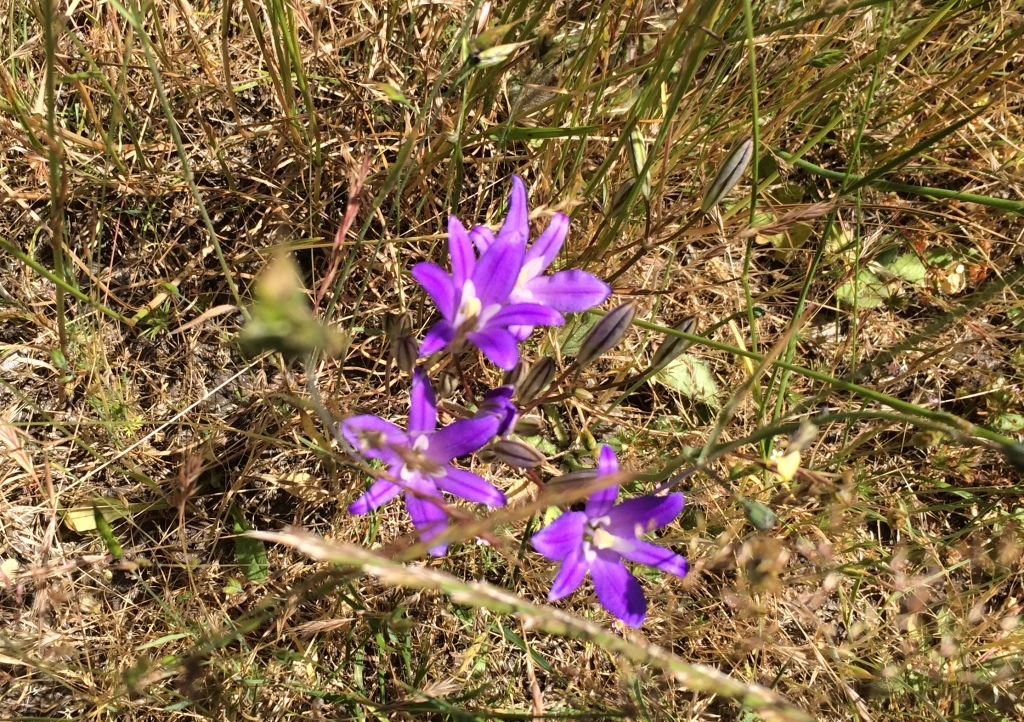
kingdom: Plantae
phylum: Tracheophyta
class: Liliopsida
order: Asparagales
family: Asparagaceae
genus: Brodiaea
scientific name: Brodiaea coronaria
